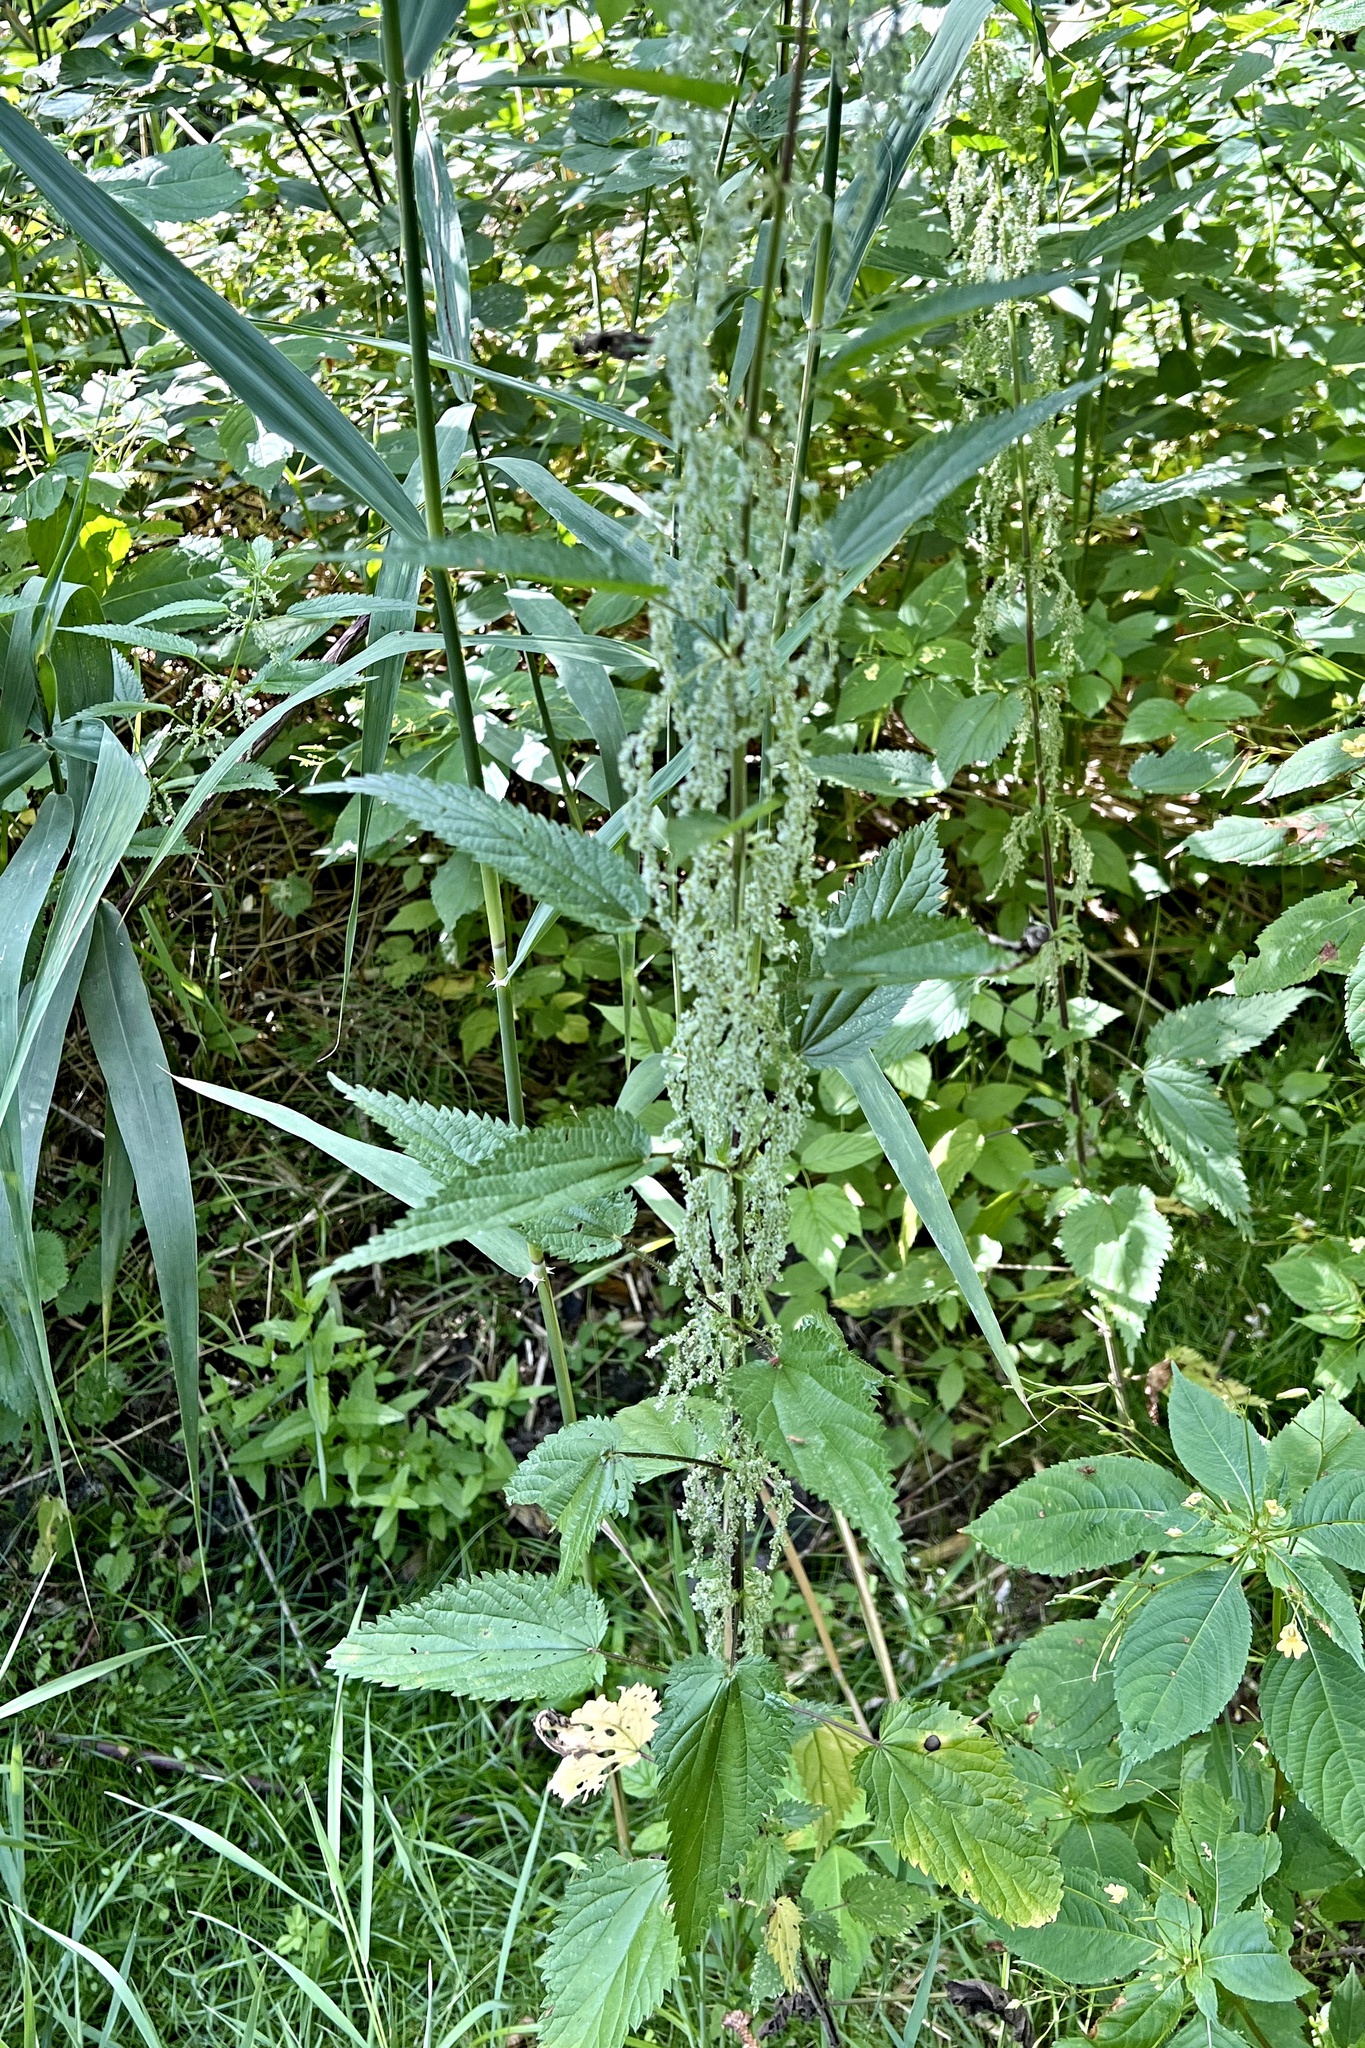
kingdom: Plantae
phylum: Tracheophyta
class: Magnoliopsida
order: Rosales
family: Urticaceae
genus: Urtica
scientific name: Urtica dioica
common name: Common nettle
